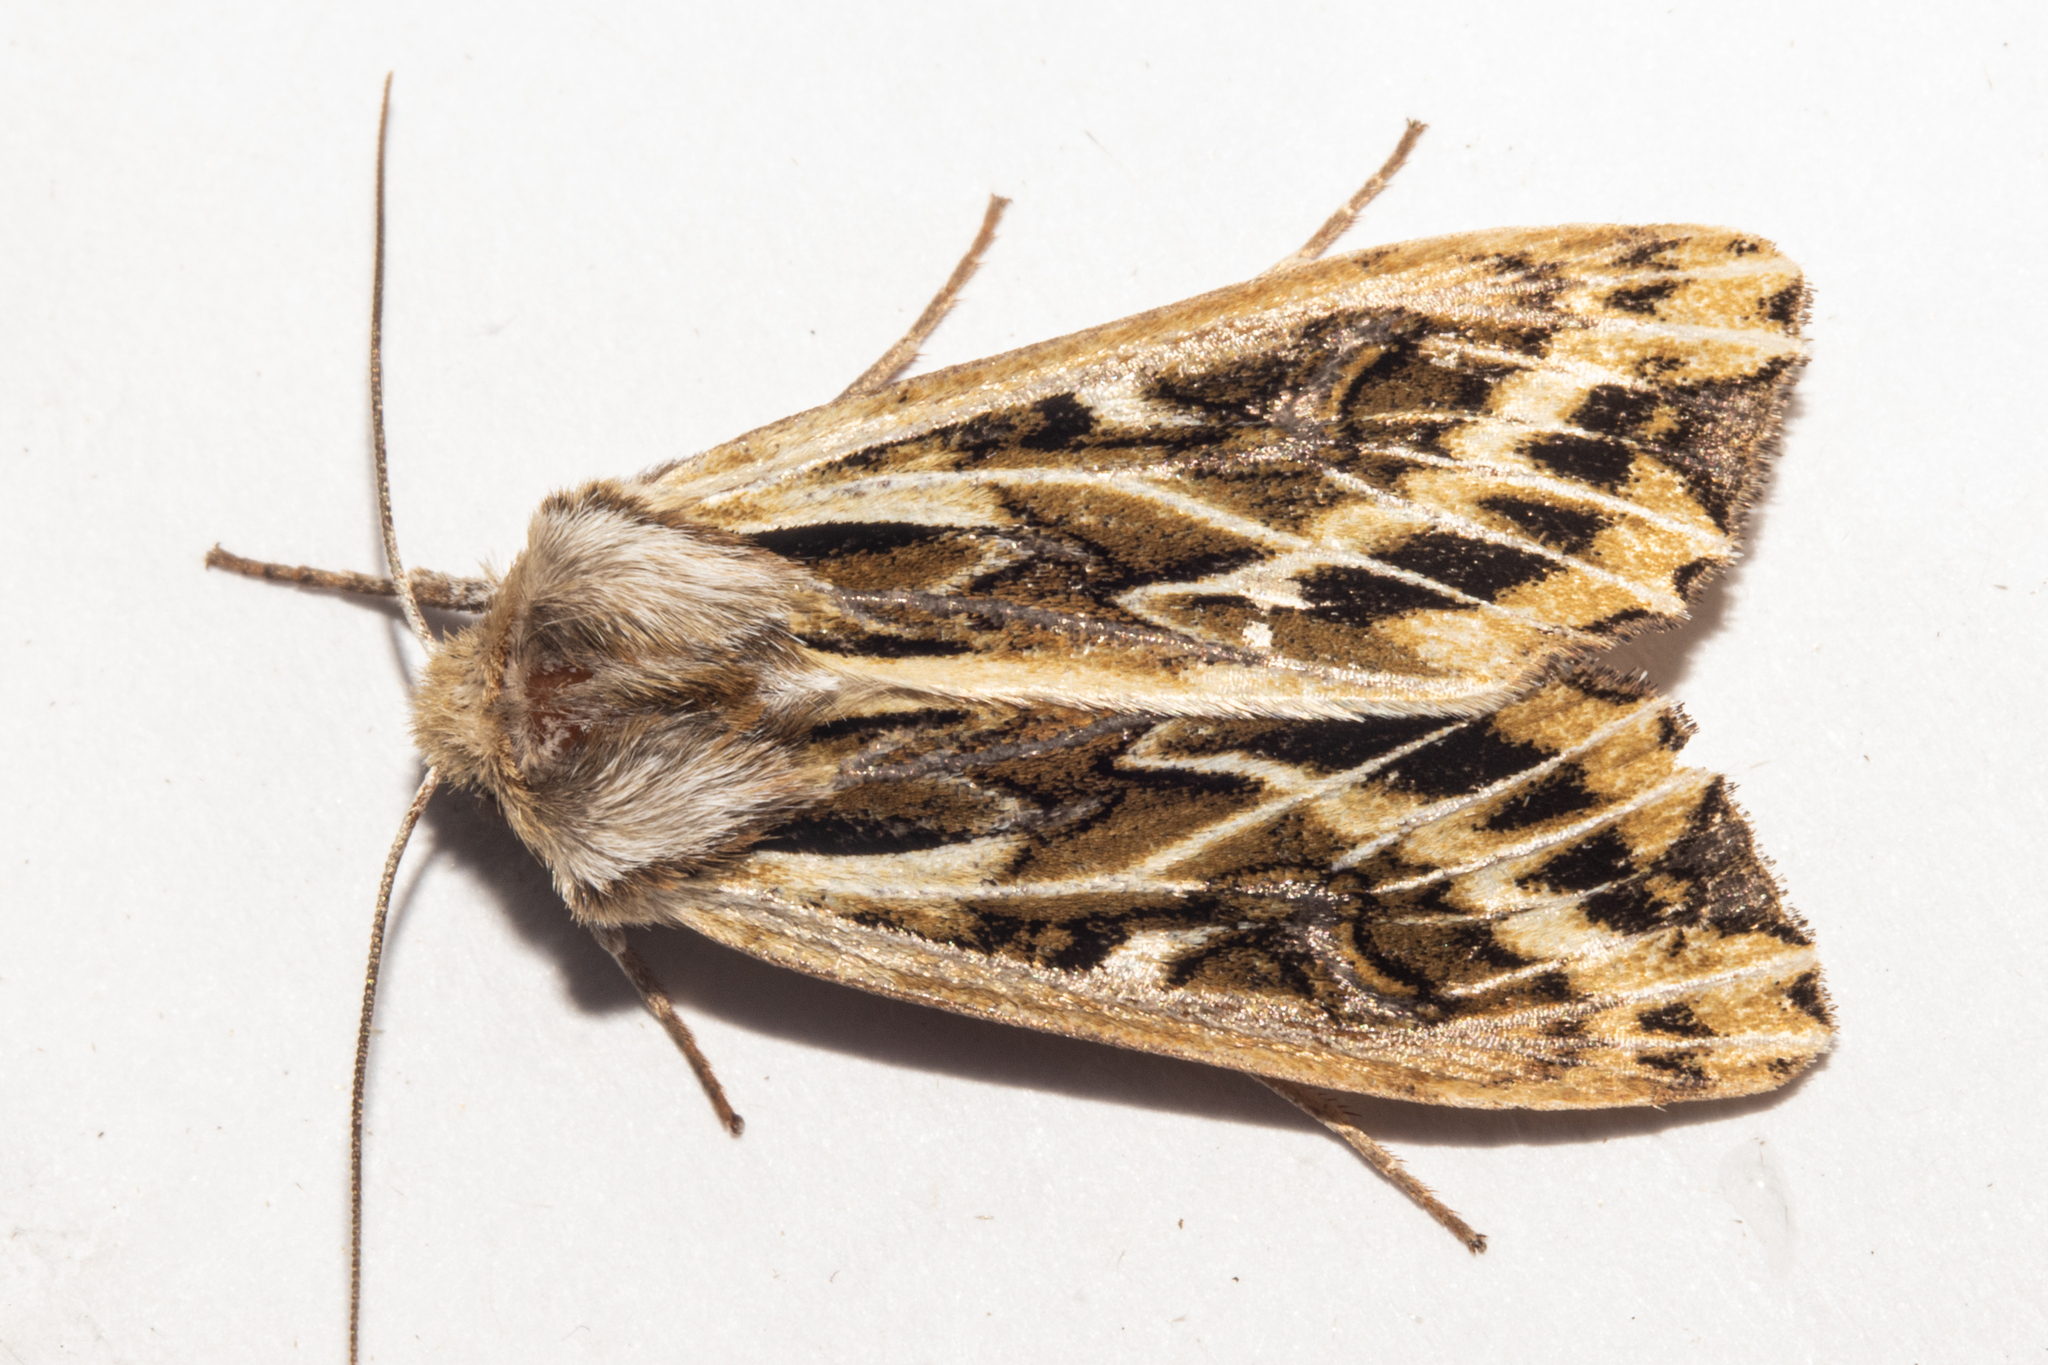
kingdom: Animalia
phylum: Arthropoda
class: Insecta
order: Lepidoptera
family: Noctuidae
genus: Ichneutica
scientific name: Ichneutica
